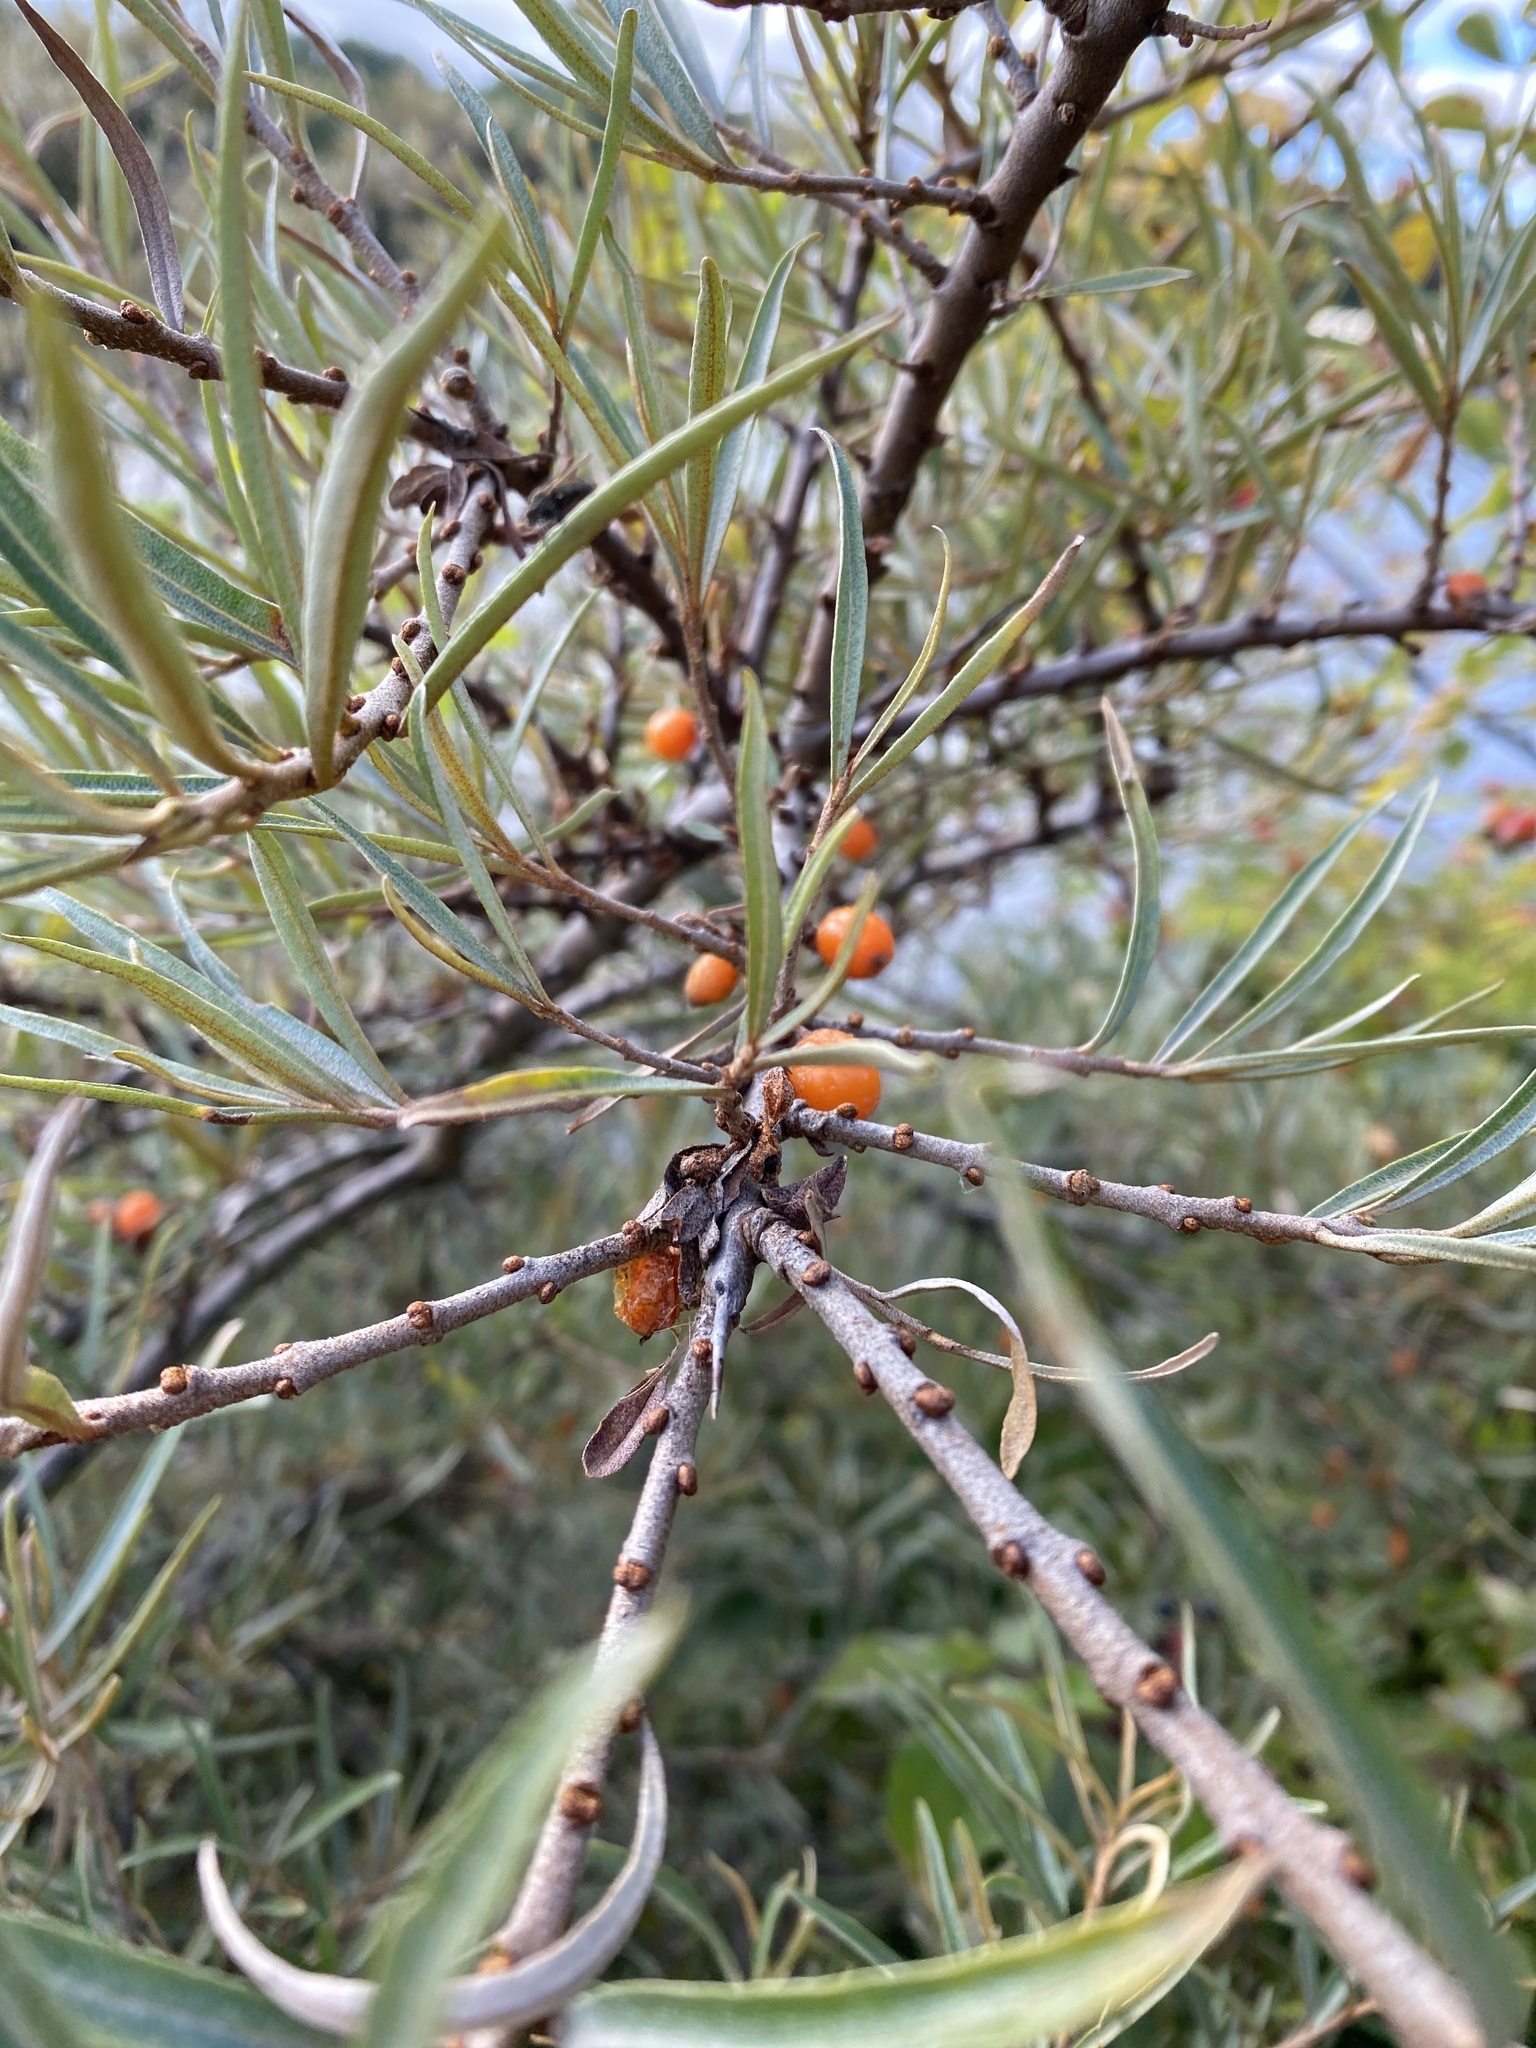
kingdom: Plantae
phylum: Tracheophyta
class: Magnoliopsida
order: Rosales
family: Elaeagnaceae
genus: Hippophae
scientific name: Hippophae rhamnoides
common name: Sea-buckthorn
